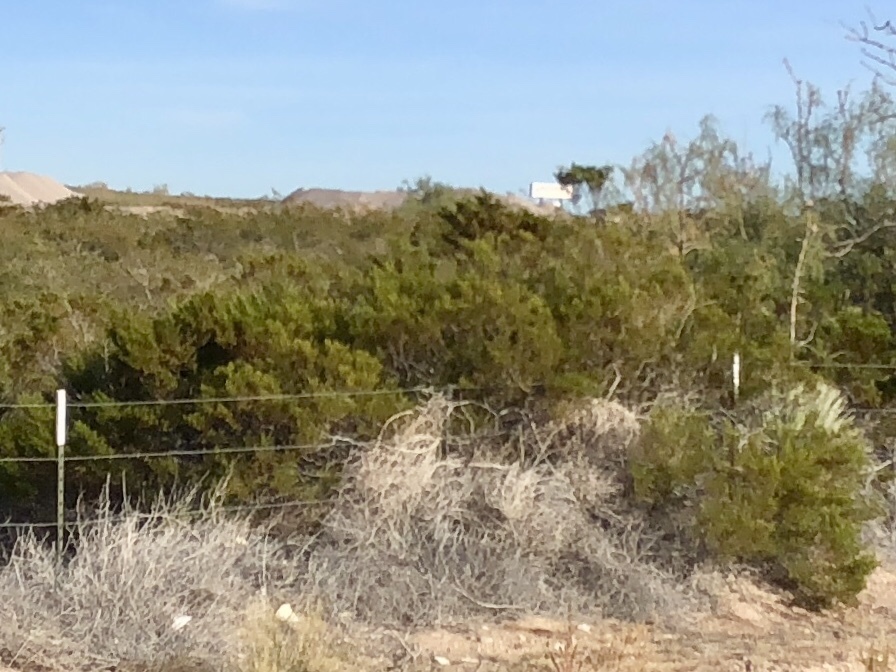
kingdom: Plantae
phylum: Tracheophyta
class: Magnoliopsida
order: Zygophyllales
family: Zygophyllaceae
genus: Larrea
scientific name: Larrea tridentata
